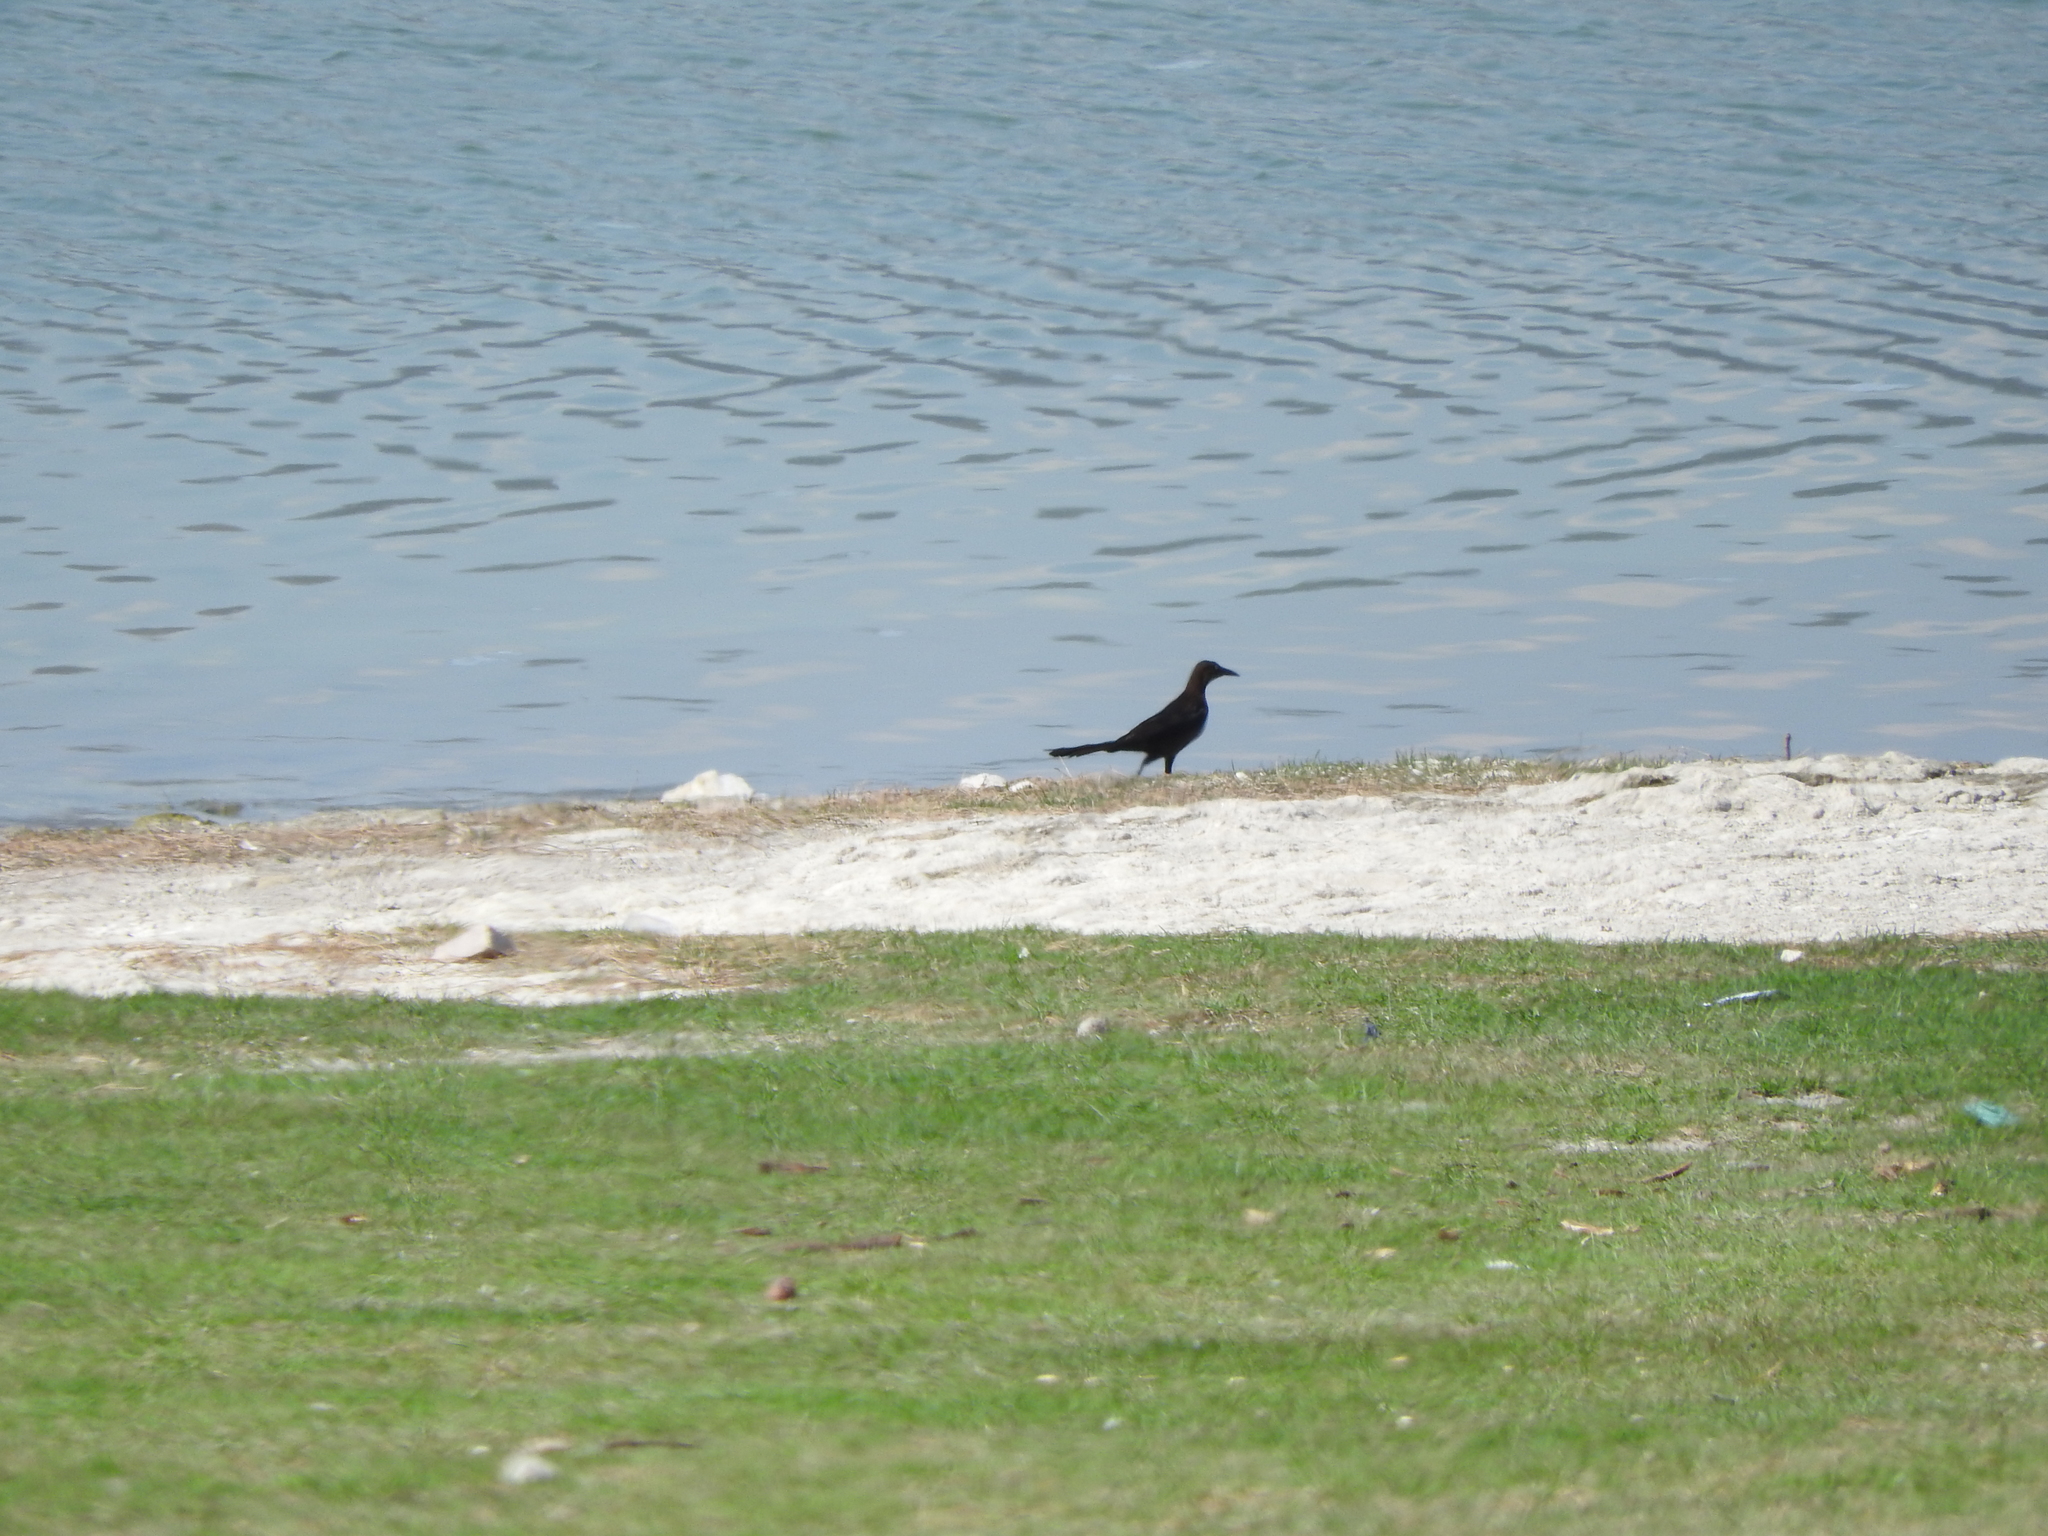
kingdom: Animalia
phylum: Chordata
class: Aves
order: Passeriformes
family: Icteridae
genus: Quiscalus
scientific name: Quiscalus mexicanus
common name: Great-tailed grackle
